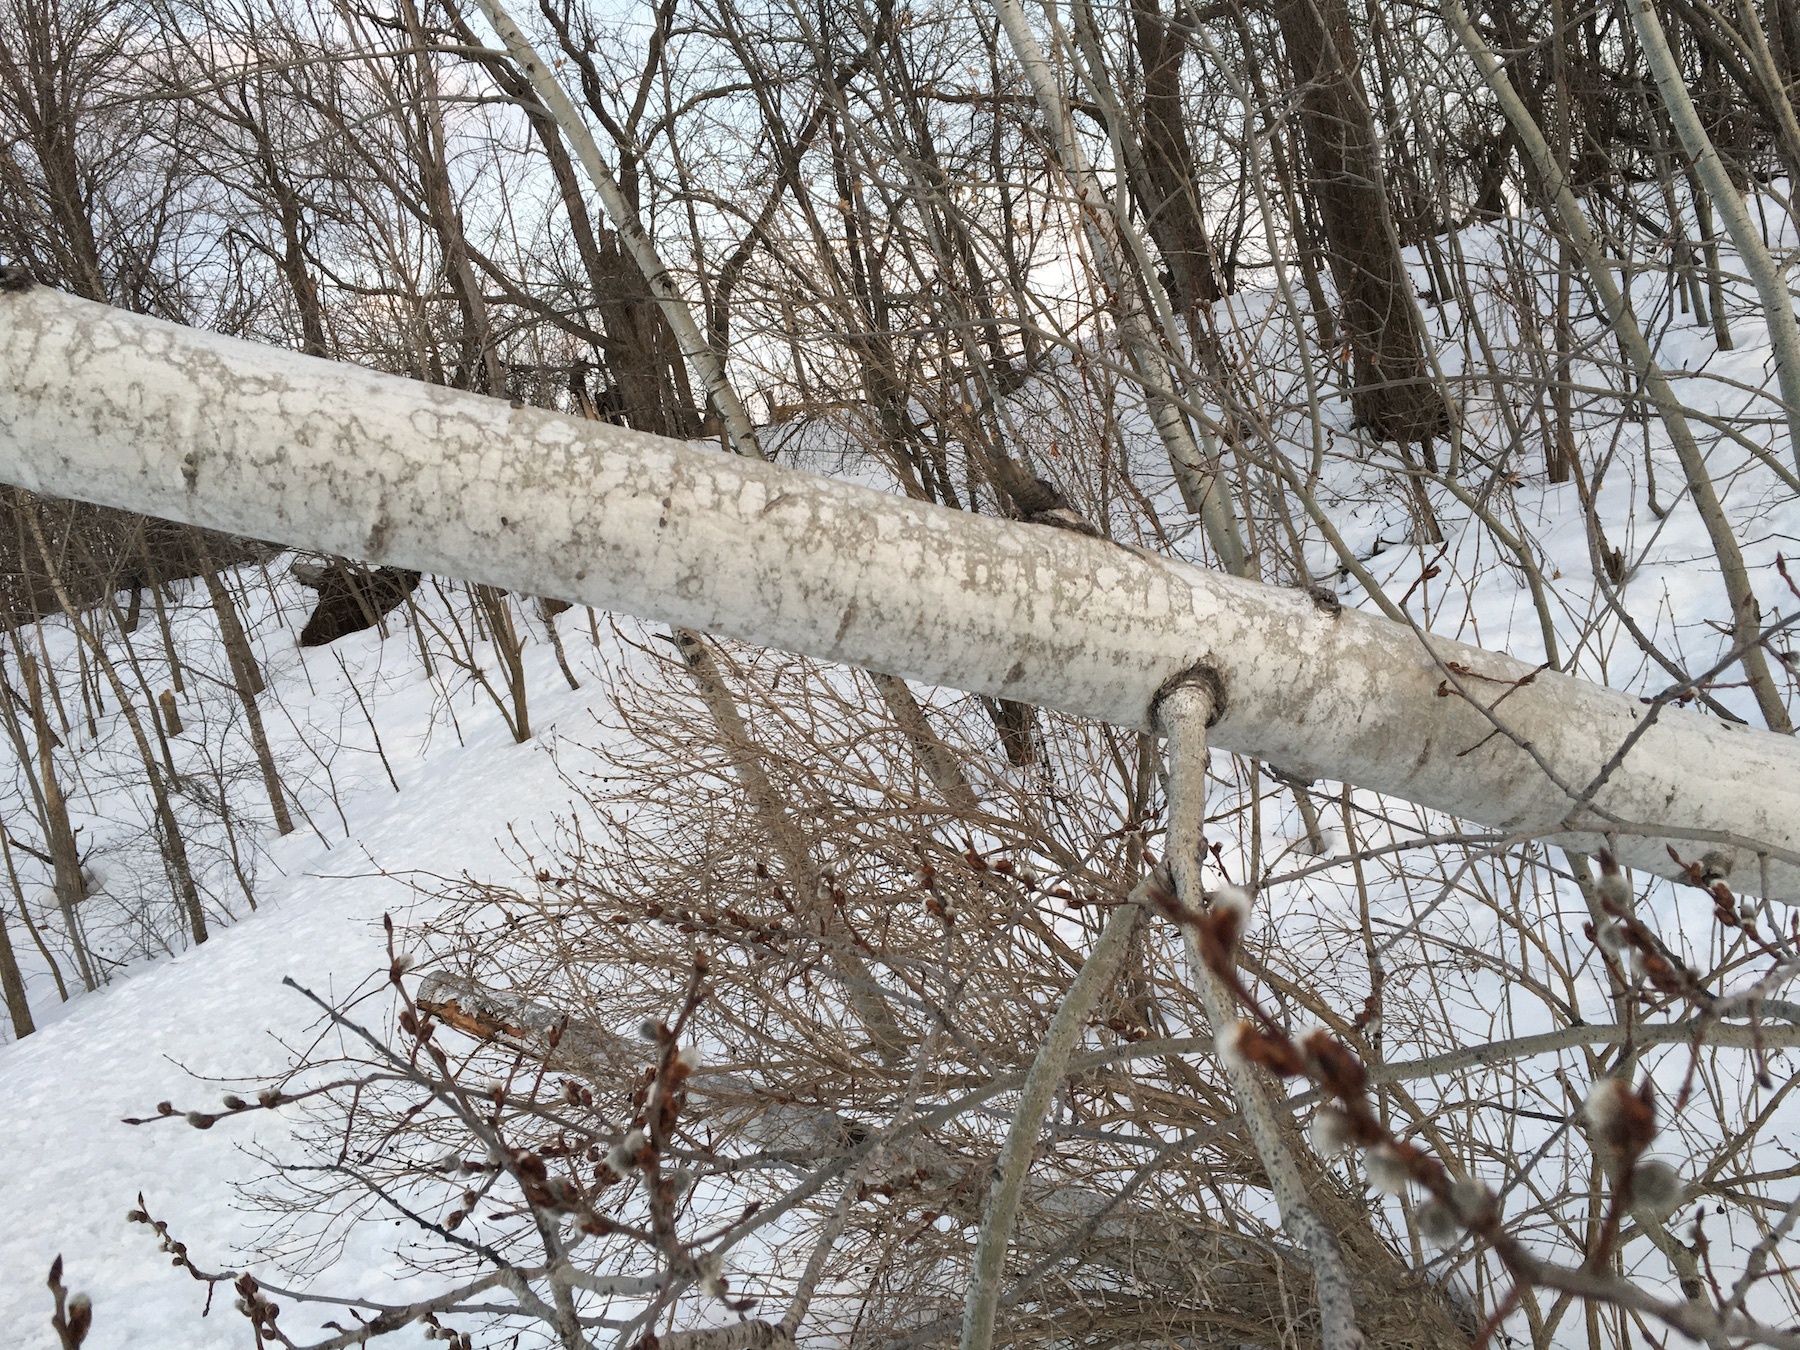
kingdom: Plantae
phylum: Tracheophyta
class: Magnoliopsida
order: Malpighiales
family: Salicaceae
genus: Populus
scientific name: Populus tremuloides
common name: Quaking aspen
